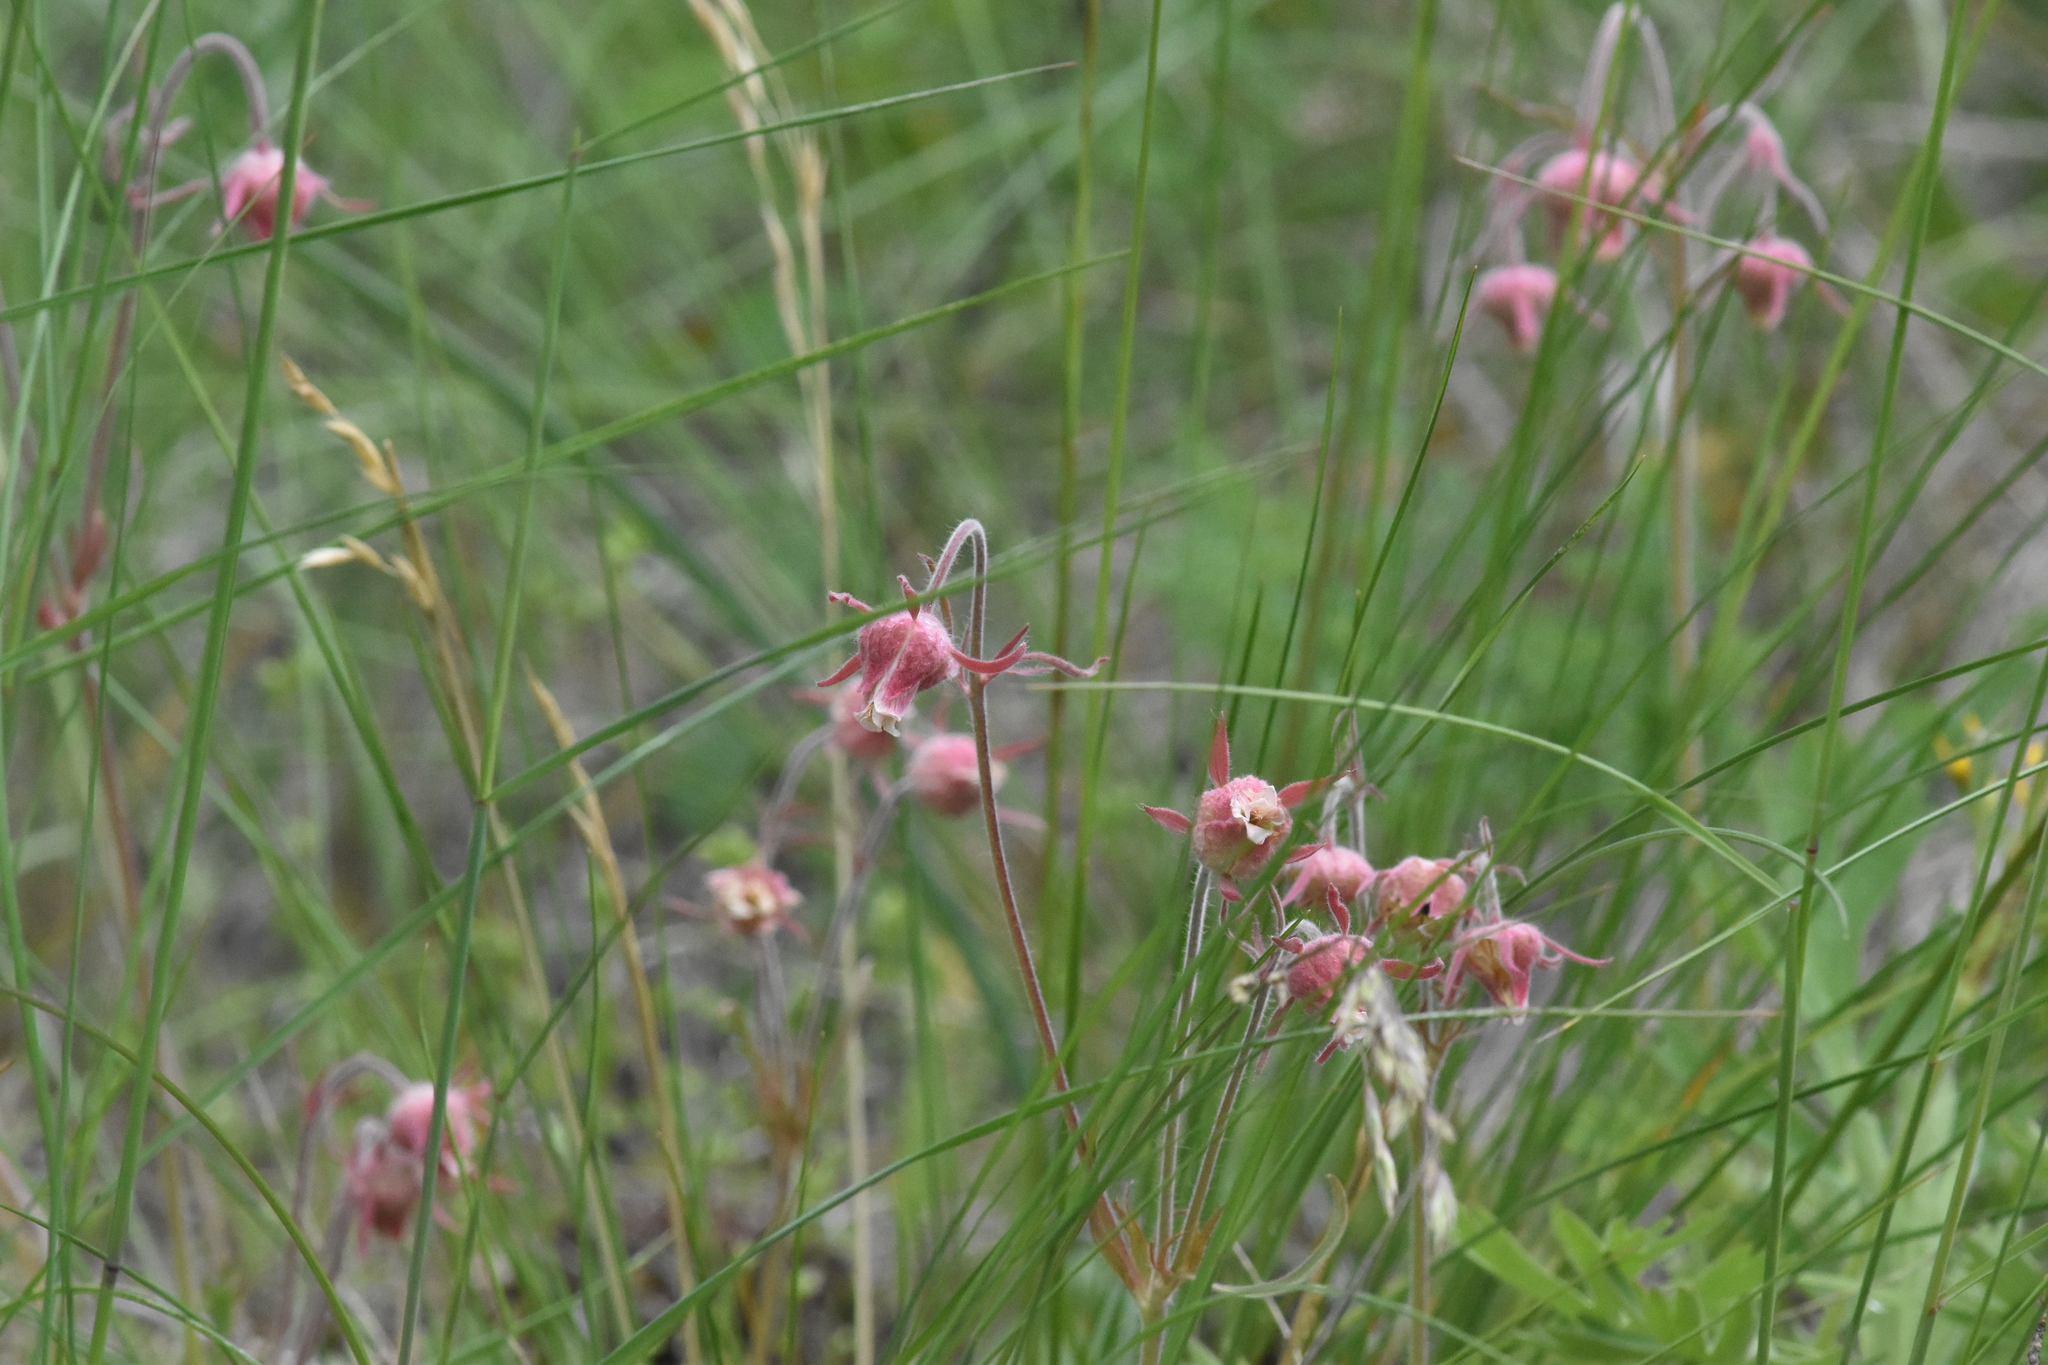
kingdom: Plantae
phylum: Tracheophyta
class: Magnoliopsida
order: Rosales
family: Rosaceae
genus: Geum
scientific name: Geum triflorum
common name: Old man's whiskers
